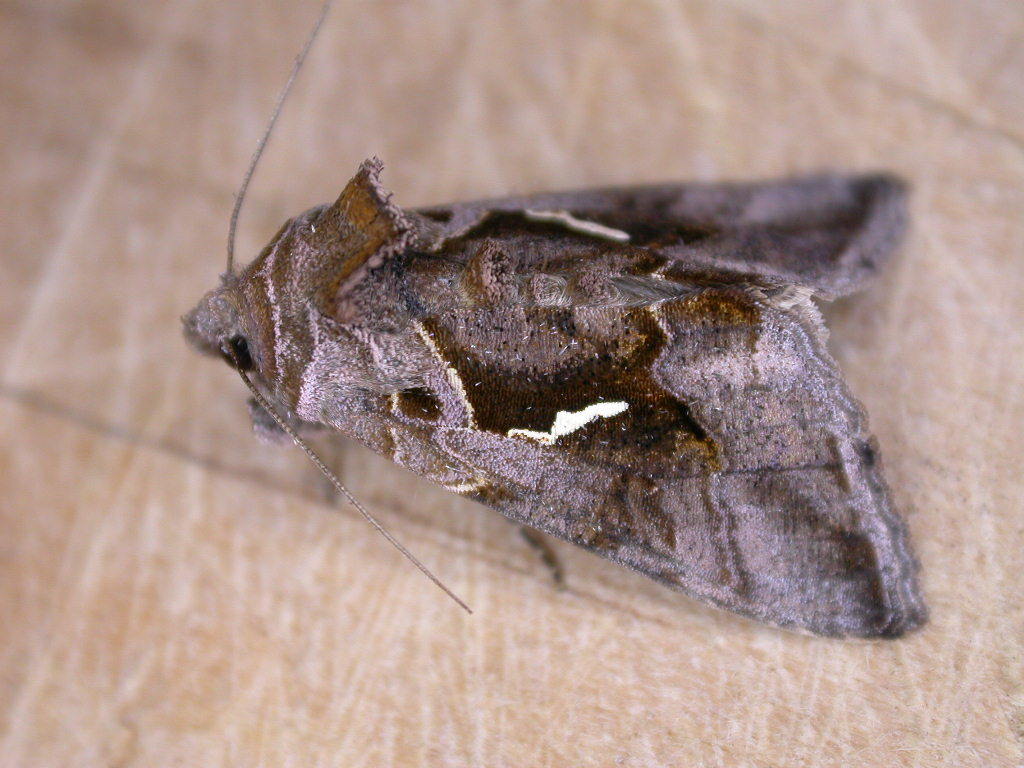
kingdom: Animalia
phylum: Arthropoda
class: Insecta
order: Lepidoptera
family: Noctuidae
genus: Chrysodeixis
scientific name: Chrysodeixis eriosoma
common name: Green garden looper
